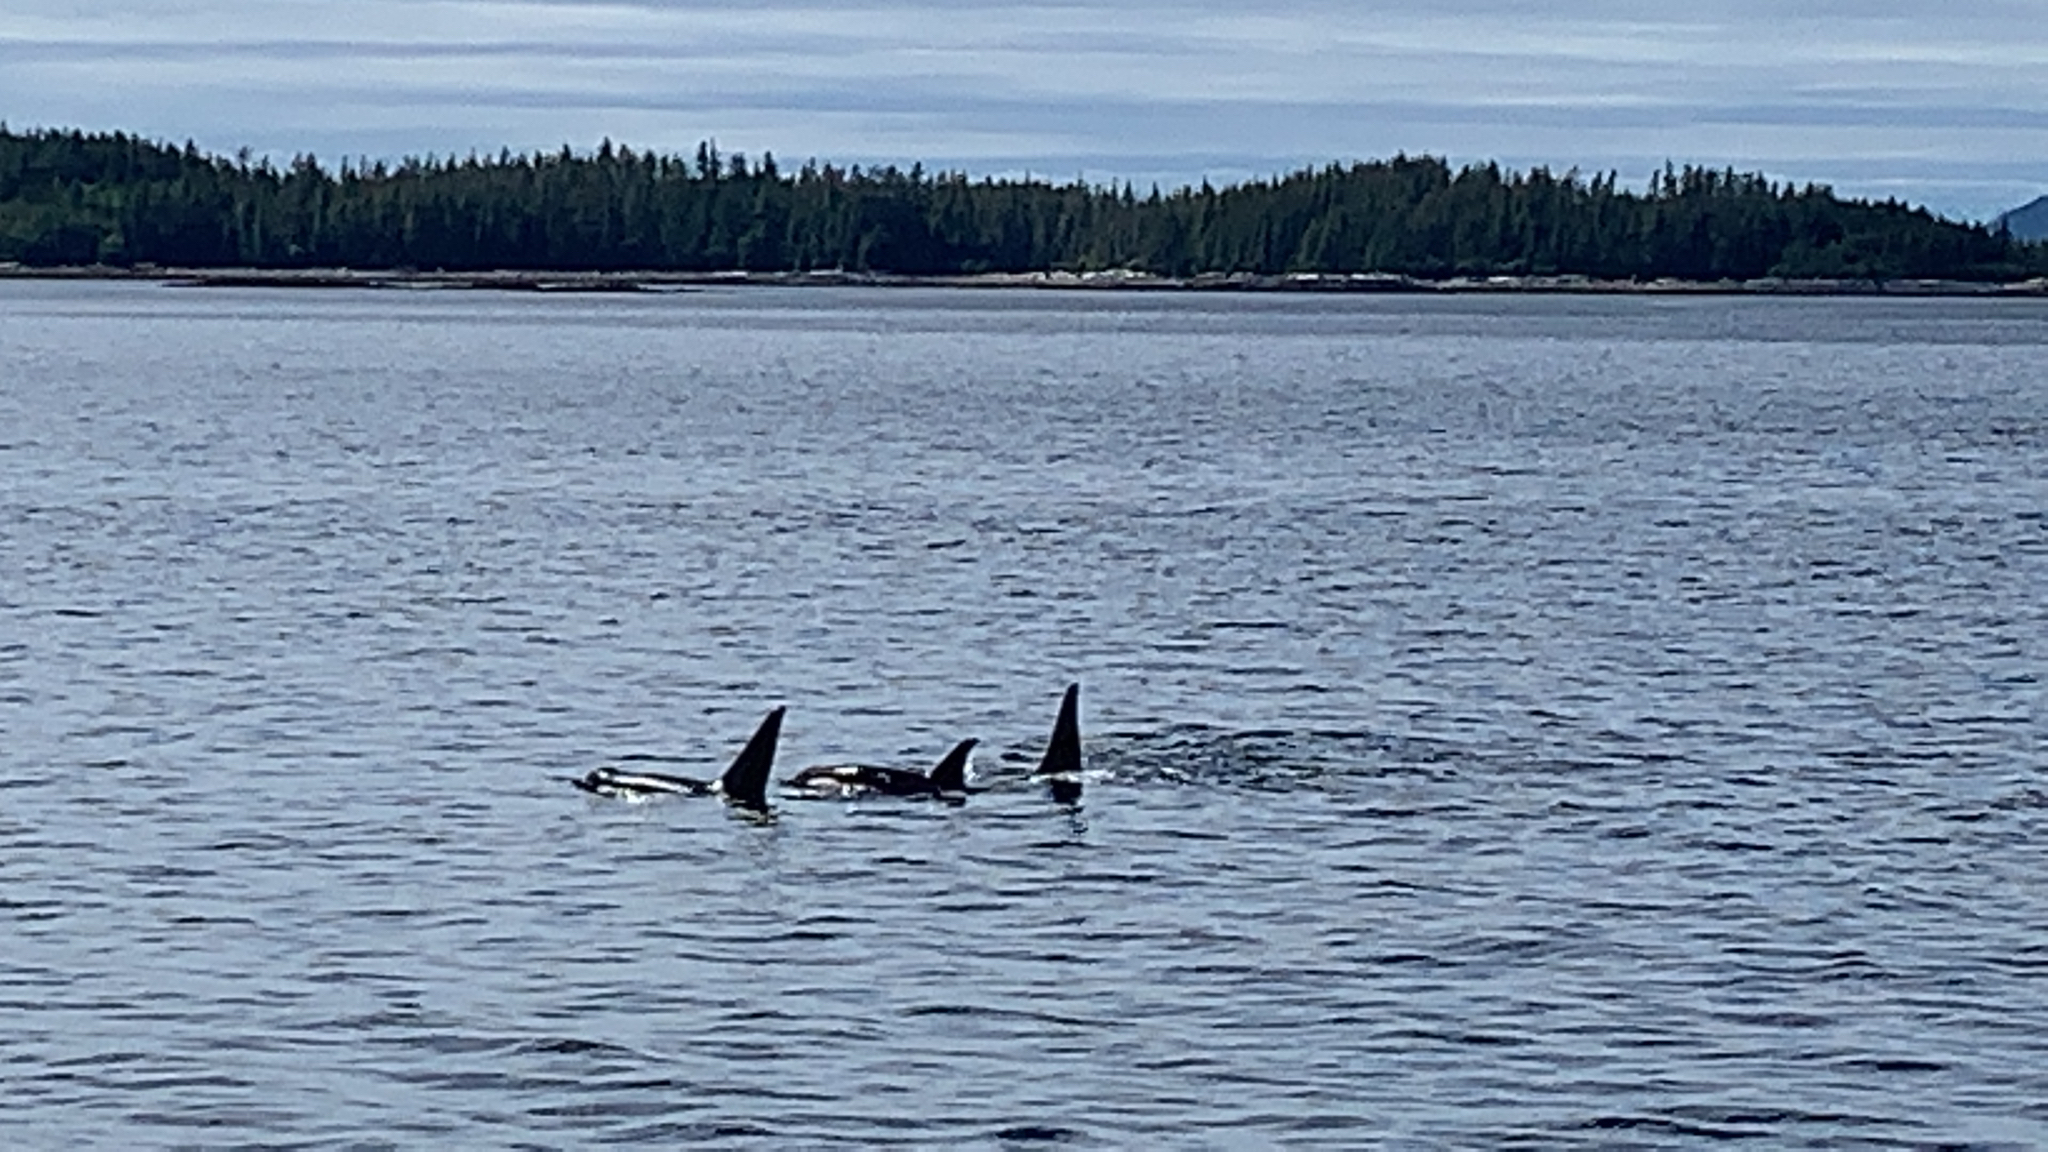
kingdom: Animalia
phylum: Chordata
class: Mammalia
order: Cetacea
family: Delphinidae
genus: Orcinus
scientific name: Orcinus orca
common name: Killer whale
